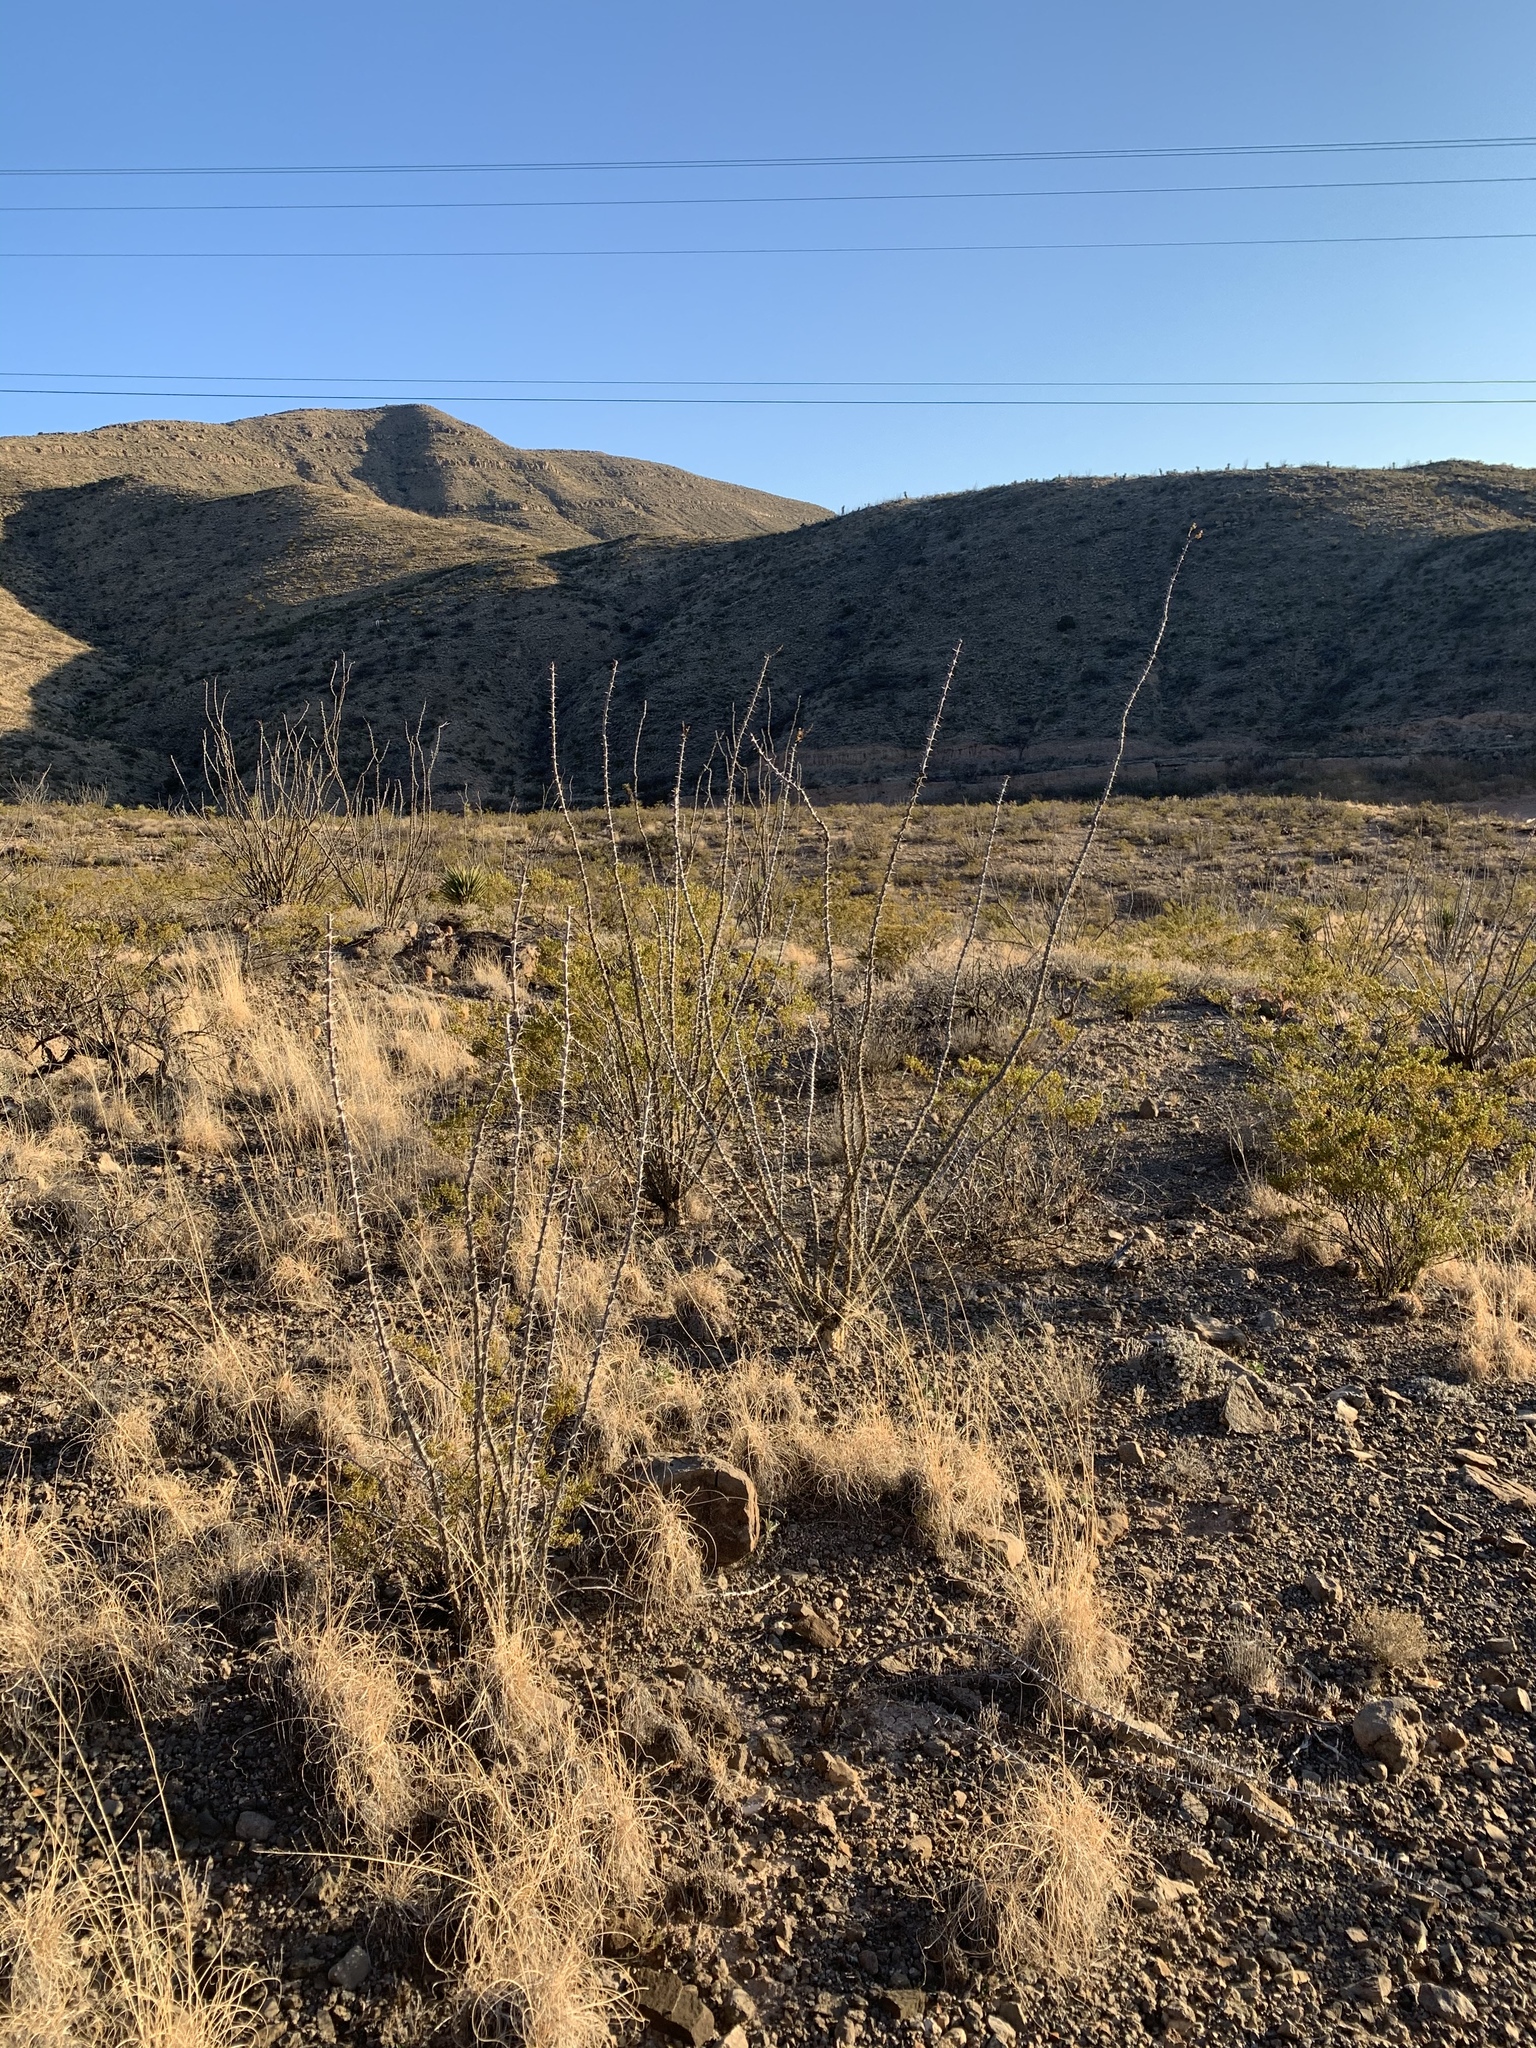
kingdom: Plantae
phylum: Tracheophyta
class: Magnoliopsida
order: Ericales
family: Fouquieriaceae
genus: Fouquieria
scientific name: Fouquieria splendens
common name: Vine-cactus
